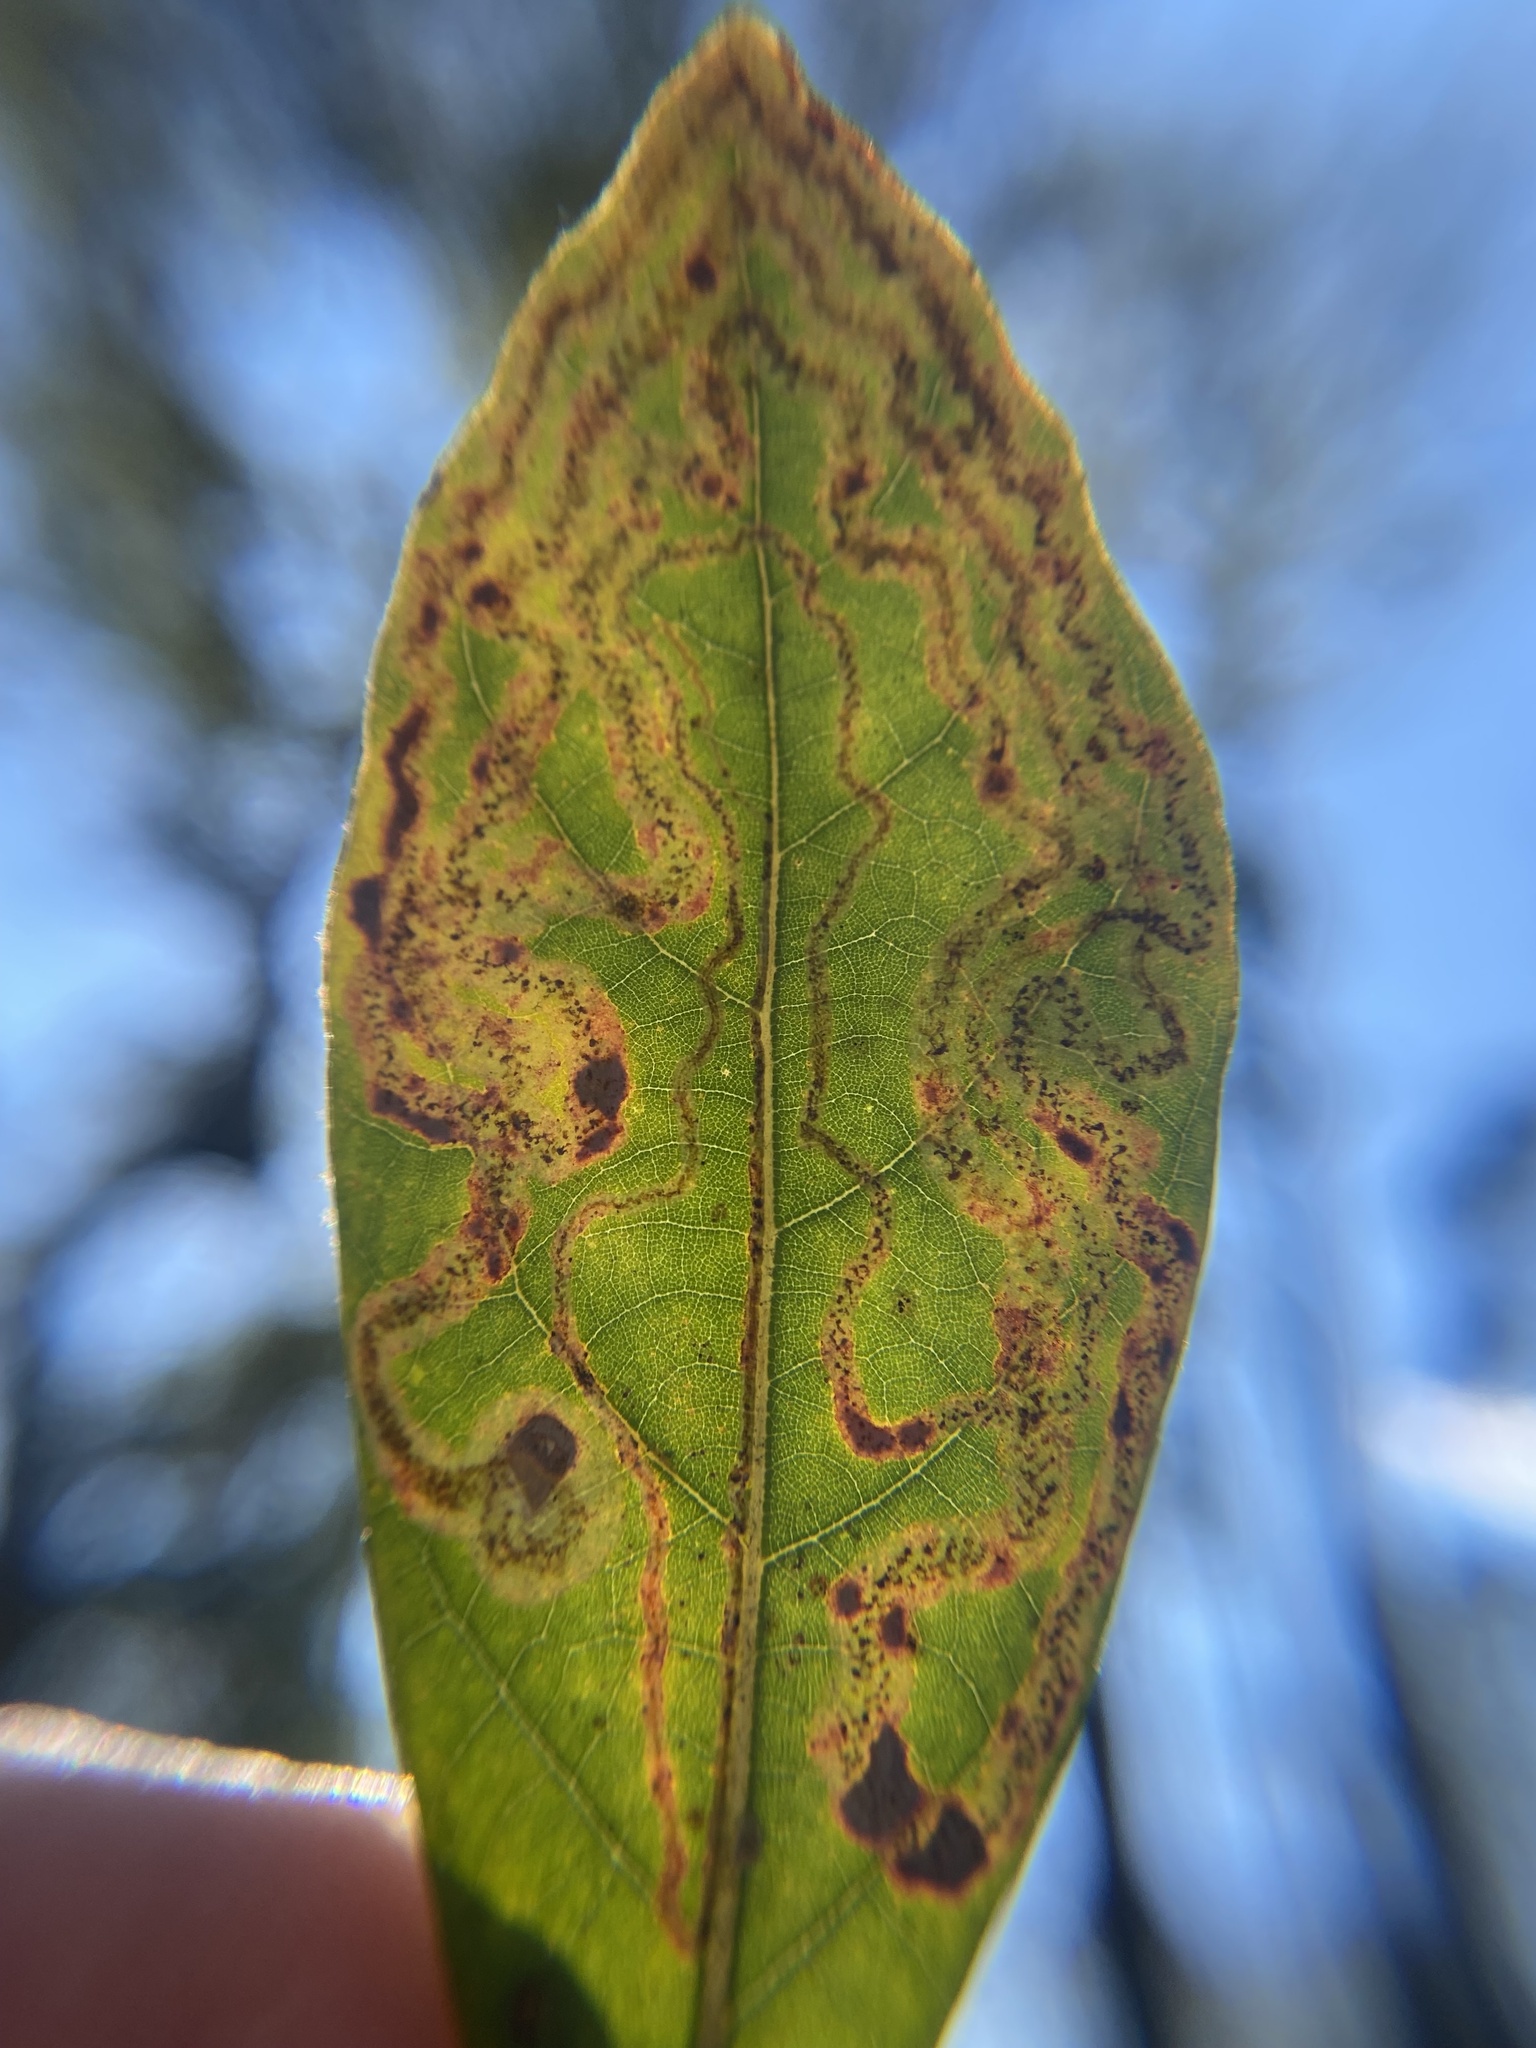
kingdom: Animalia
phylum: Arthropoda
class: Insecta
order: Lepidoptera
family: Gracillariidae
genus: Phyllocnistis
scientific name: Phyllocnistis hyperpersea
